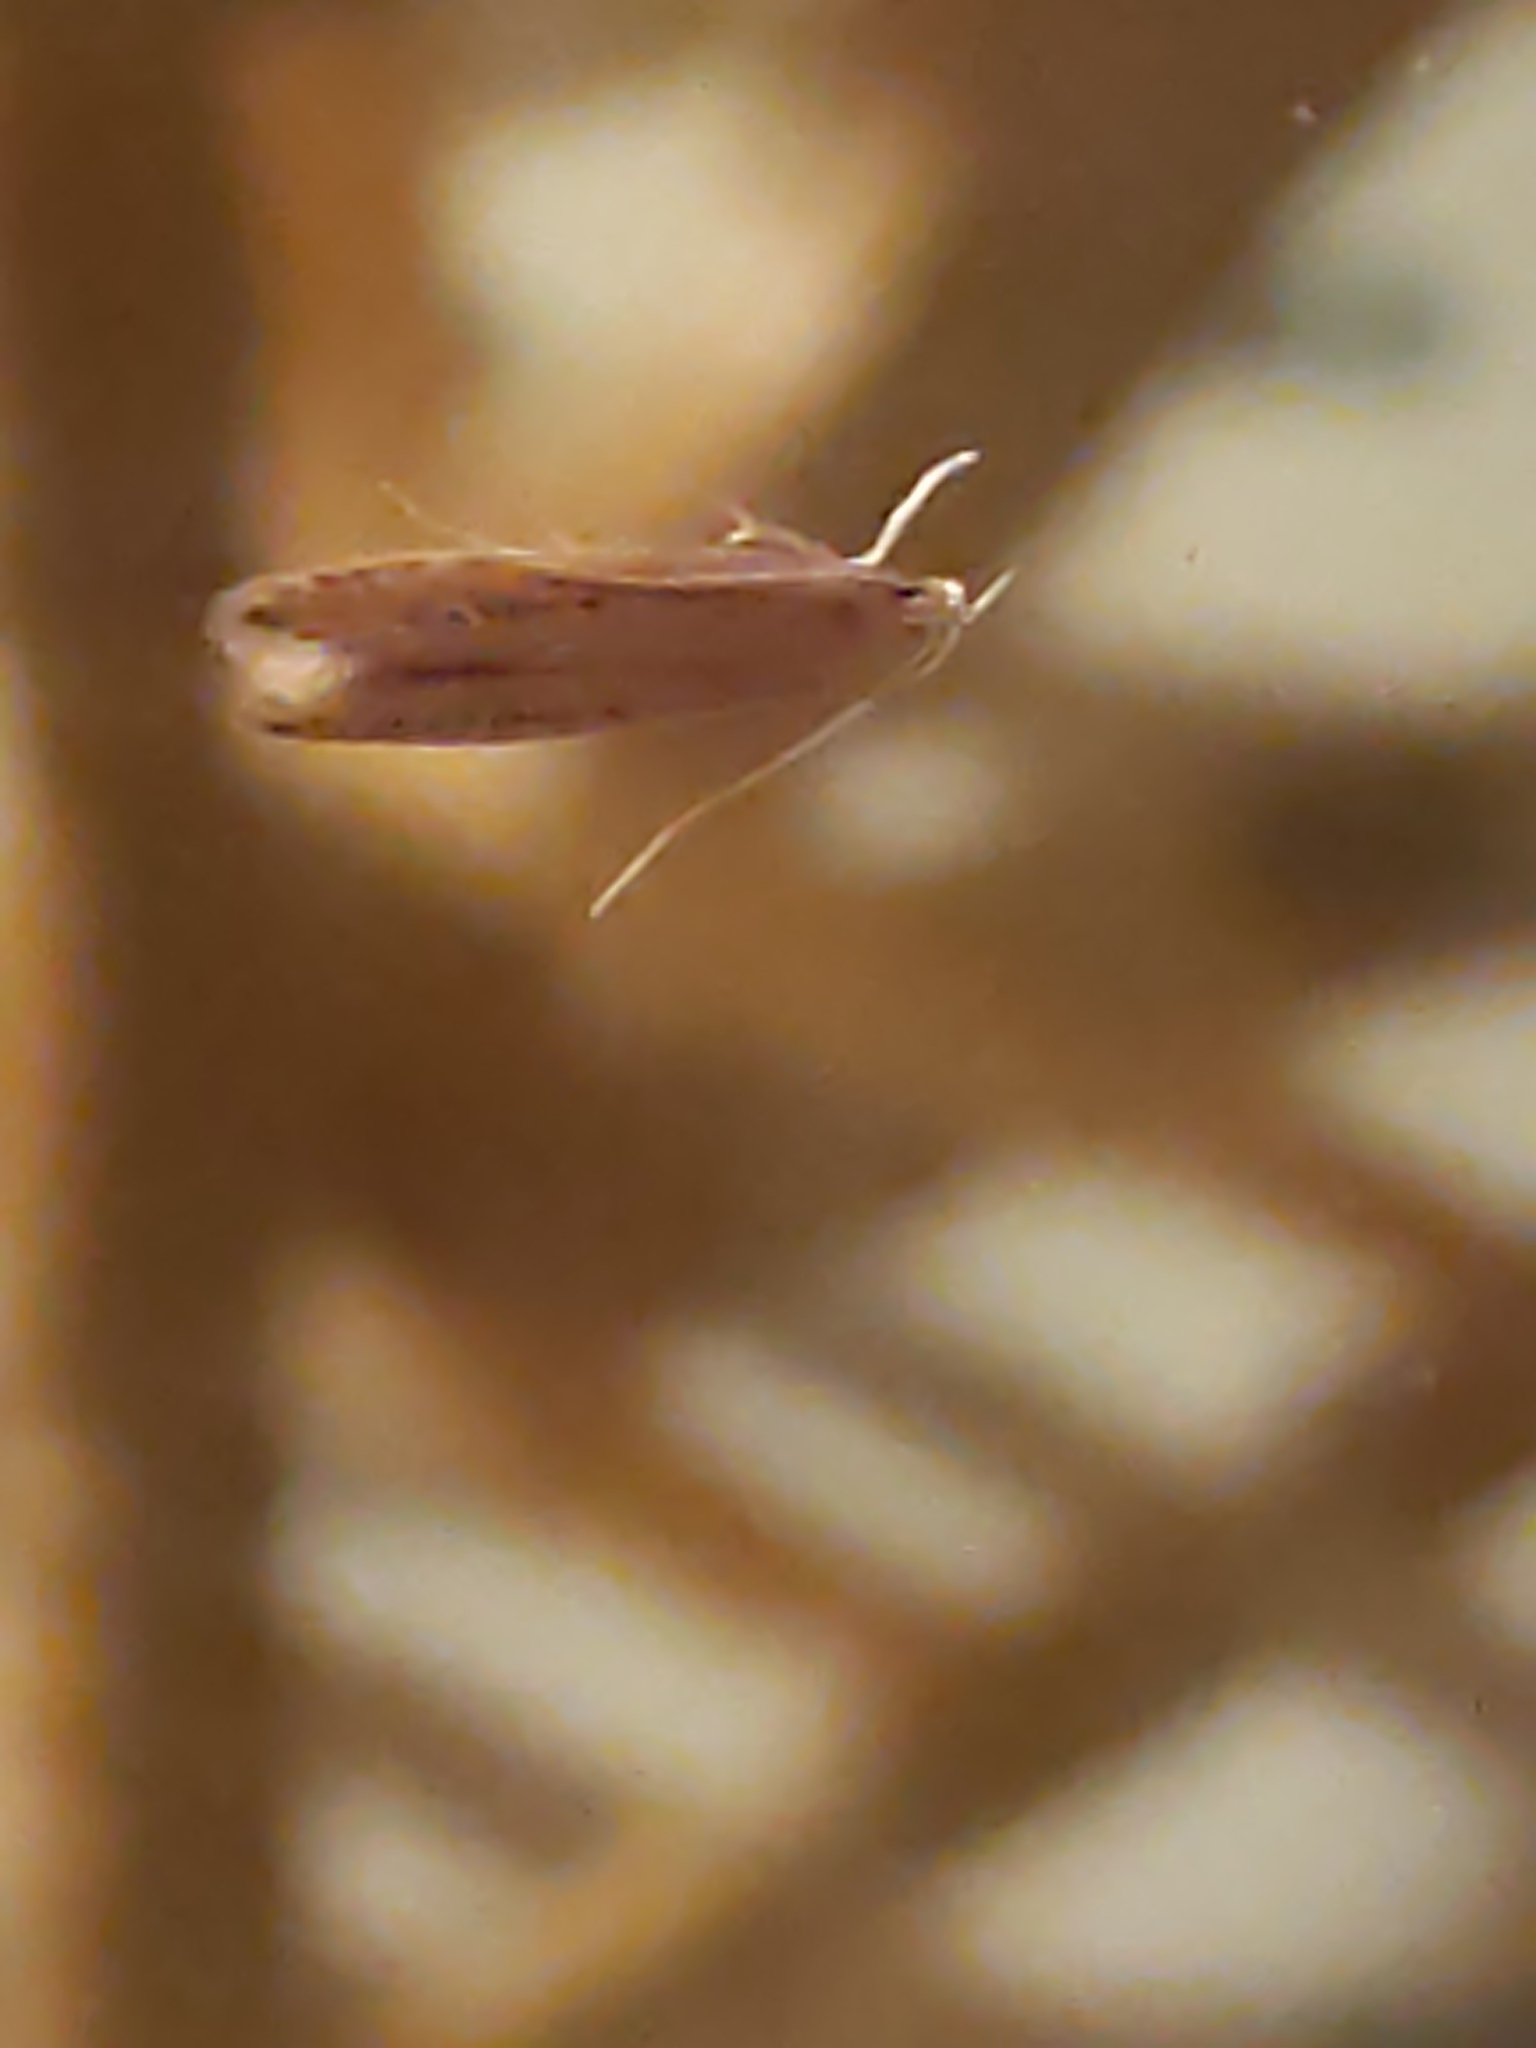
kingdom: Animalia
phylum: Arthropoda
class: Insecta
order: Lepidoptera
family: Cosmopterigidae
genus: Limnaecia
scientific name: Limnaecia phragmitella
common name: Bulrush cosmet
